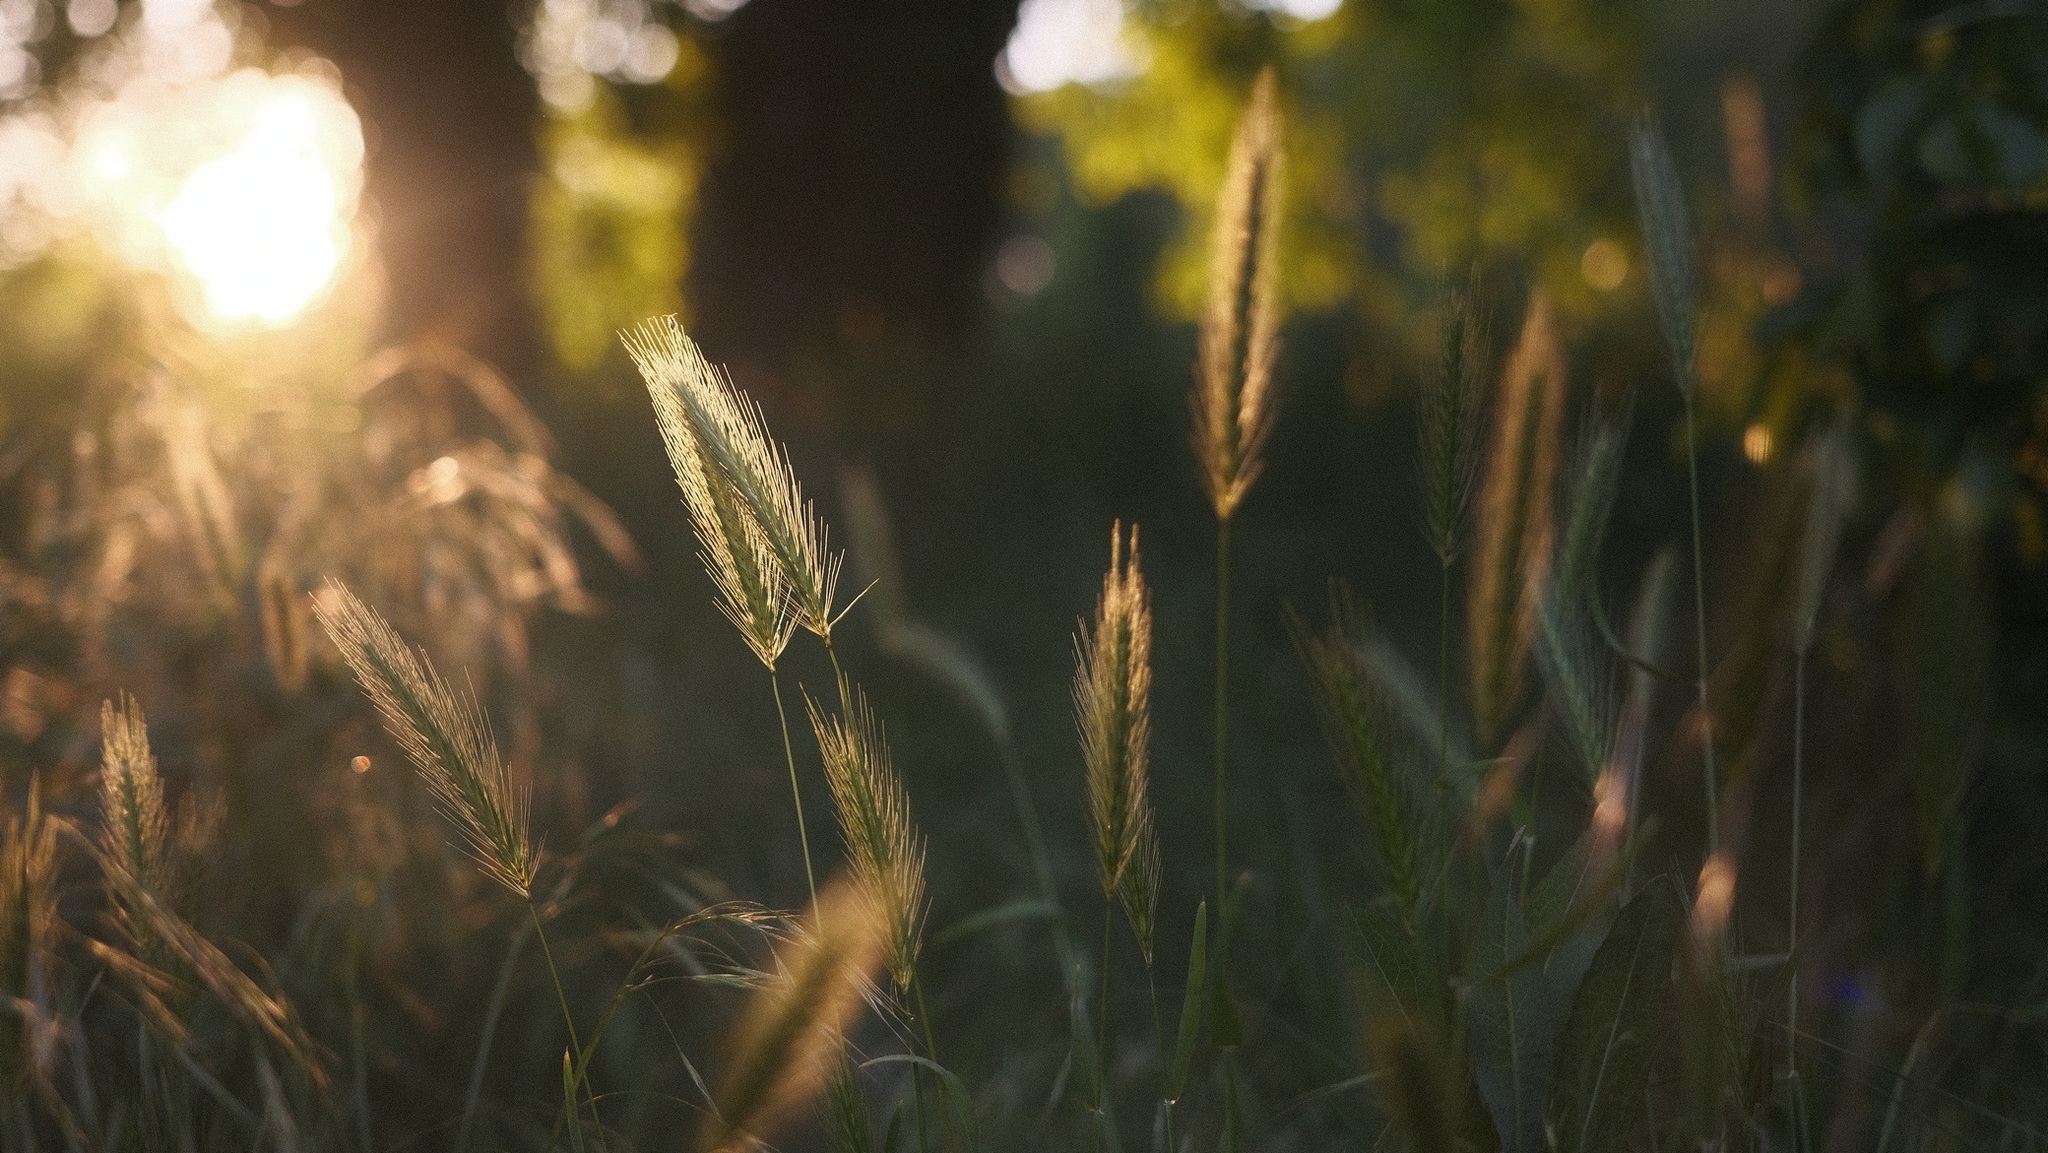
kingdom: Plantae
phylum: Tracheophyta
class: Liliopsida
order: Poales
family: Poaceae
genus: Hordeum
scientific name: Hordeum murinum
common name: Wall barley
